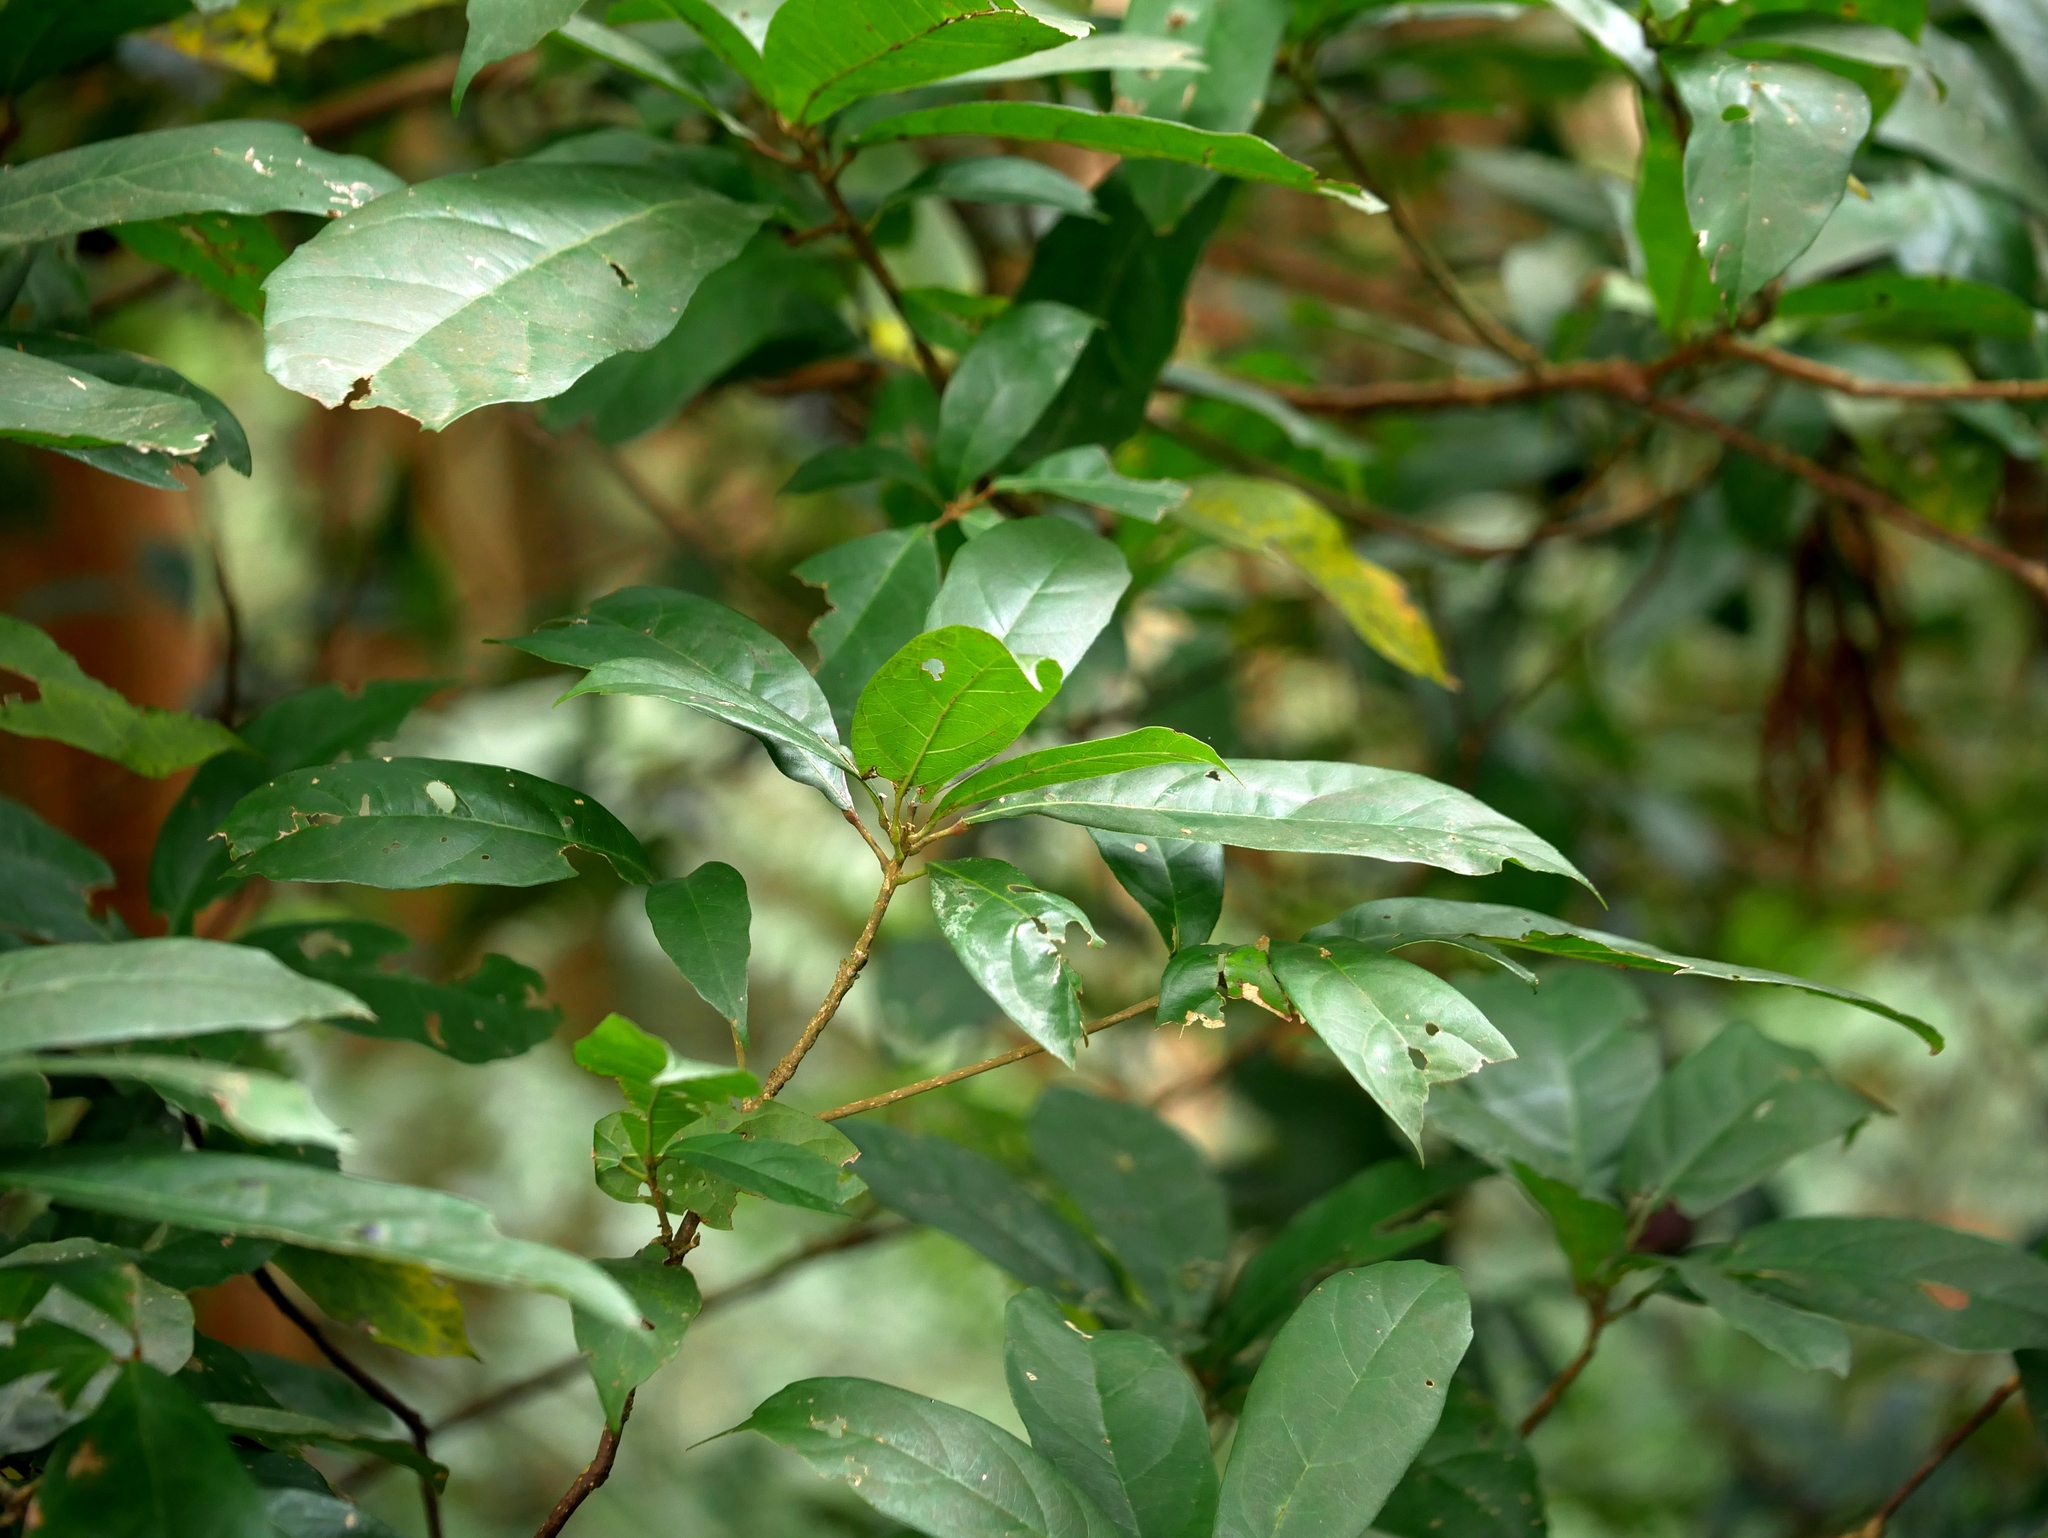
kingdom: Plantae
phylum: Tracheophyta
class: Magnoliopsida
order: Oxalidales
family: Elaeocarpaceae
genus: Sloanea
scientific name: Sloanea dasycarpa
